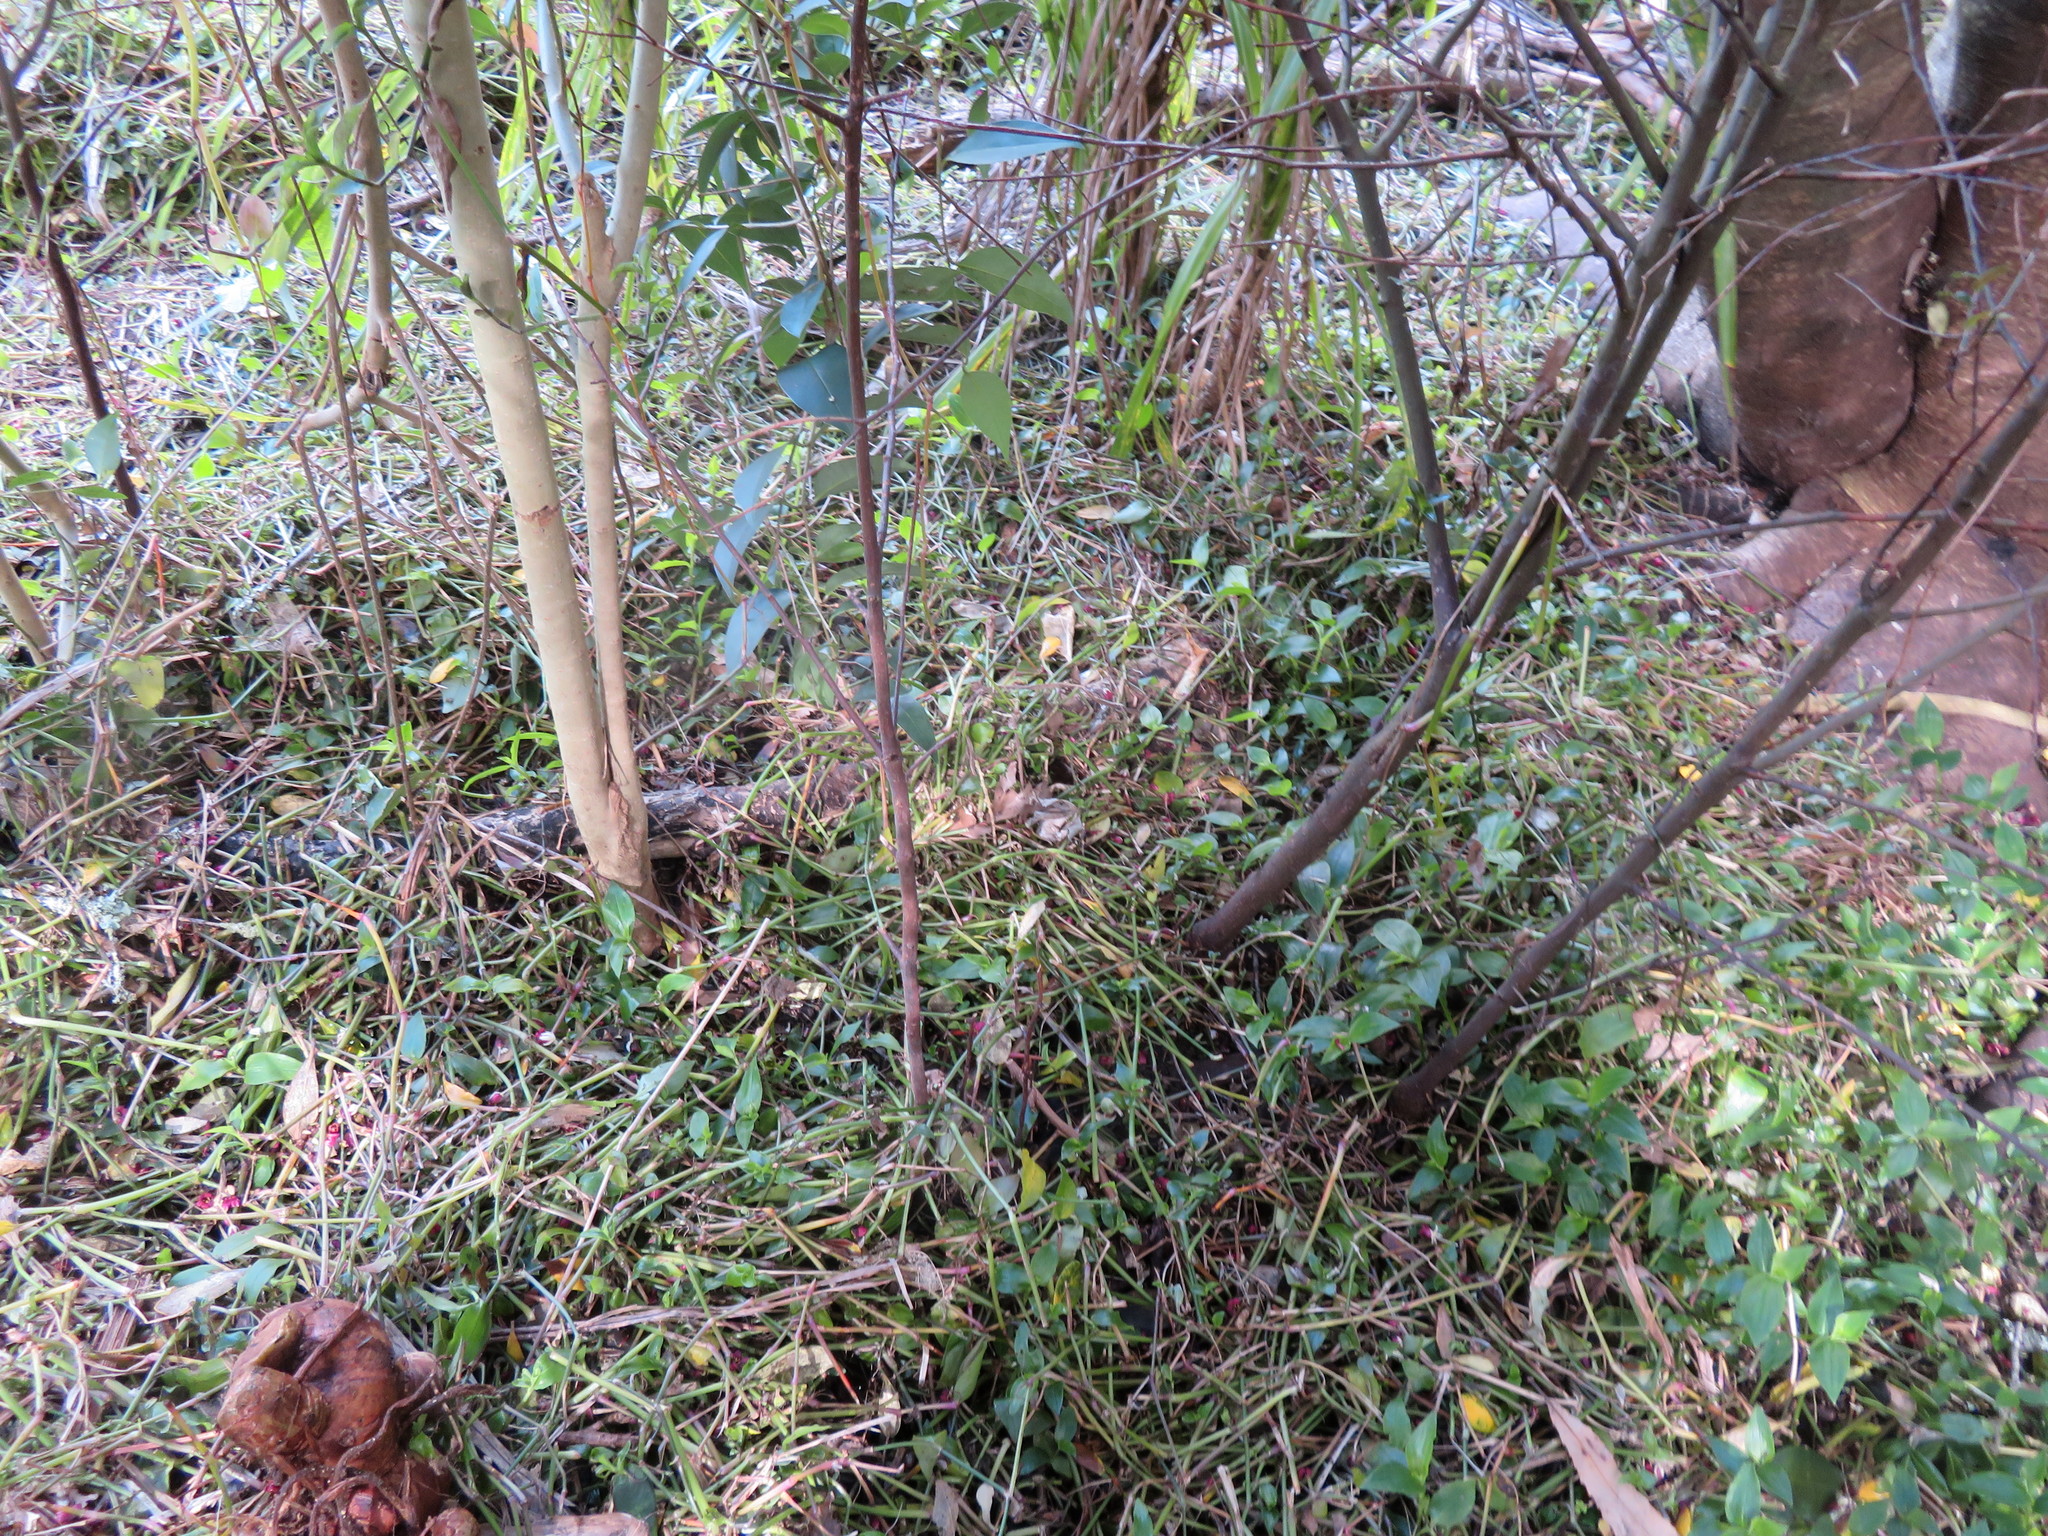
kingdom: Plantae
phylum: Tracheophyta
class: Liliopsida
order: Commelinales
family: Commelinaceae
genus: Tradescantia
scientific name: Tradescantia fluminensis
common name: Wandering-jew
